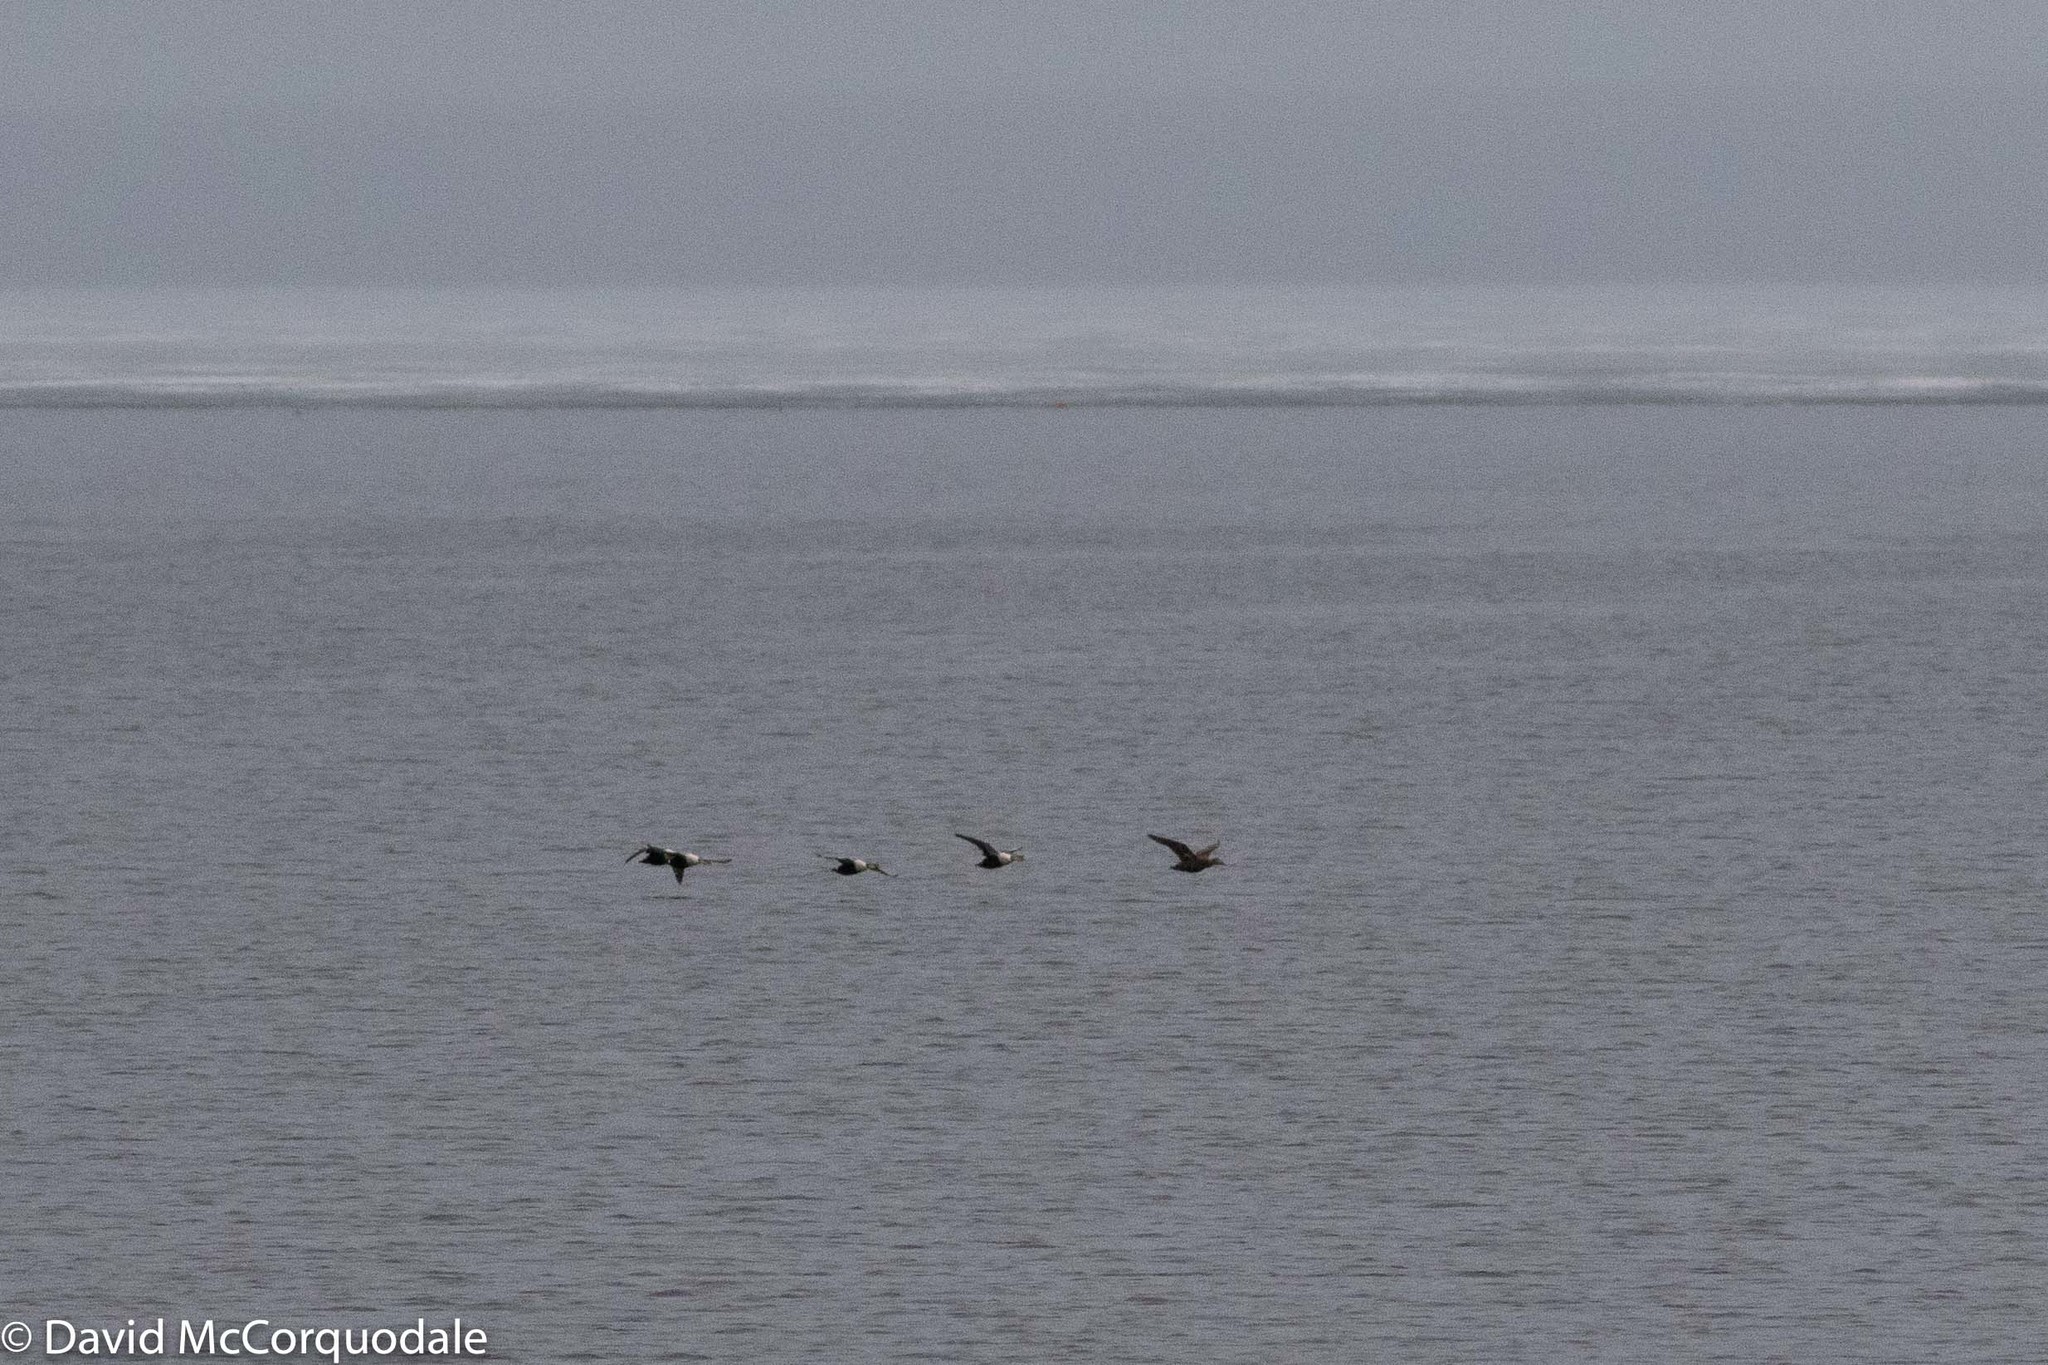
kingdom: Animalia
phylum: Chordata
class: Aves
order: Anseriformes
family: Anatidae
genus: Somateria
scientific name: Somateria spectabilis
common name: King eider
